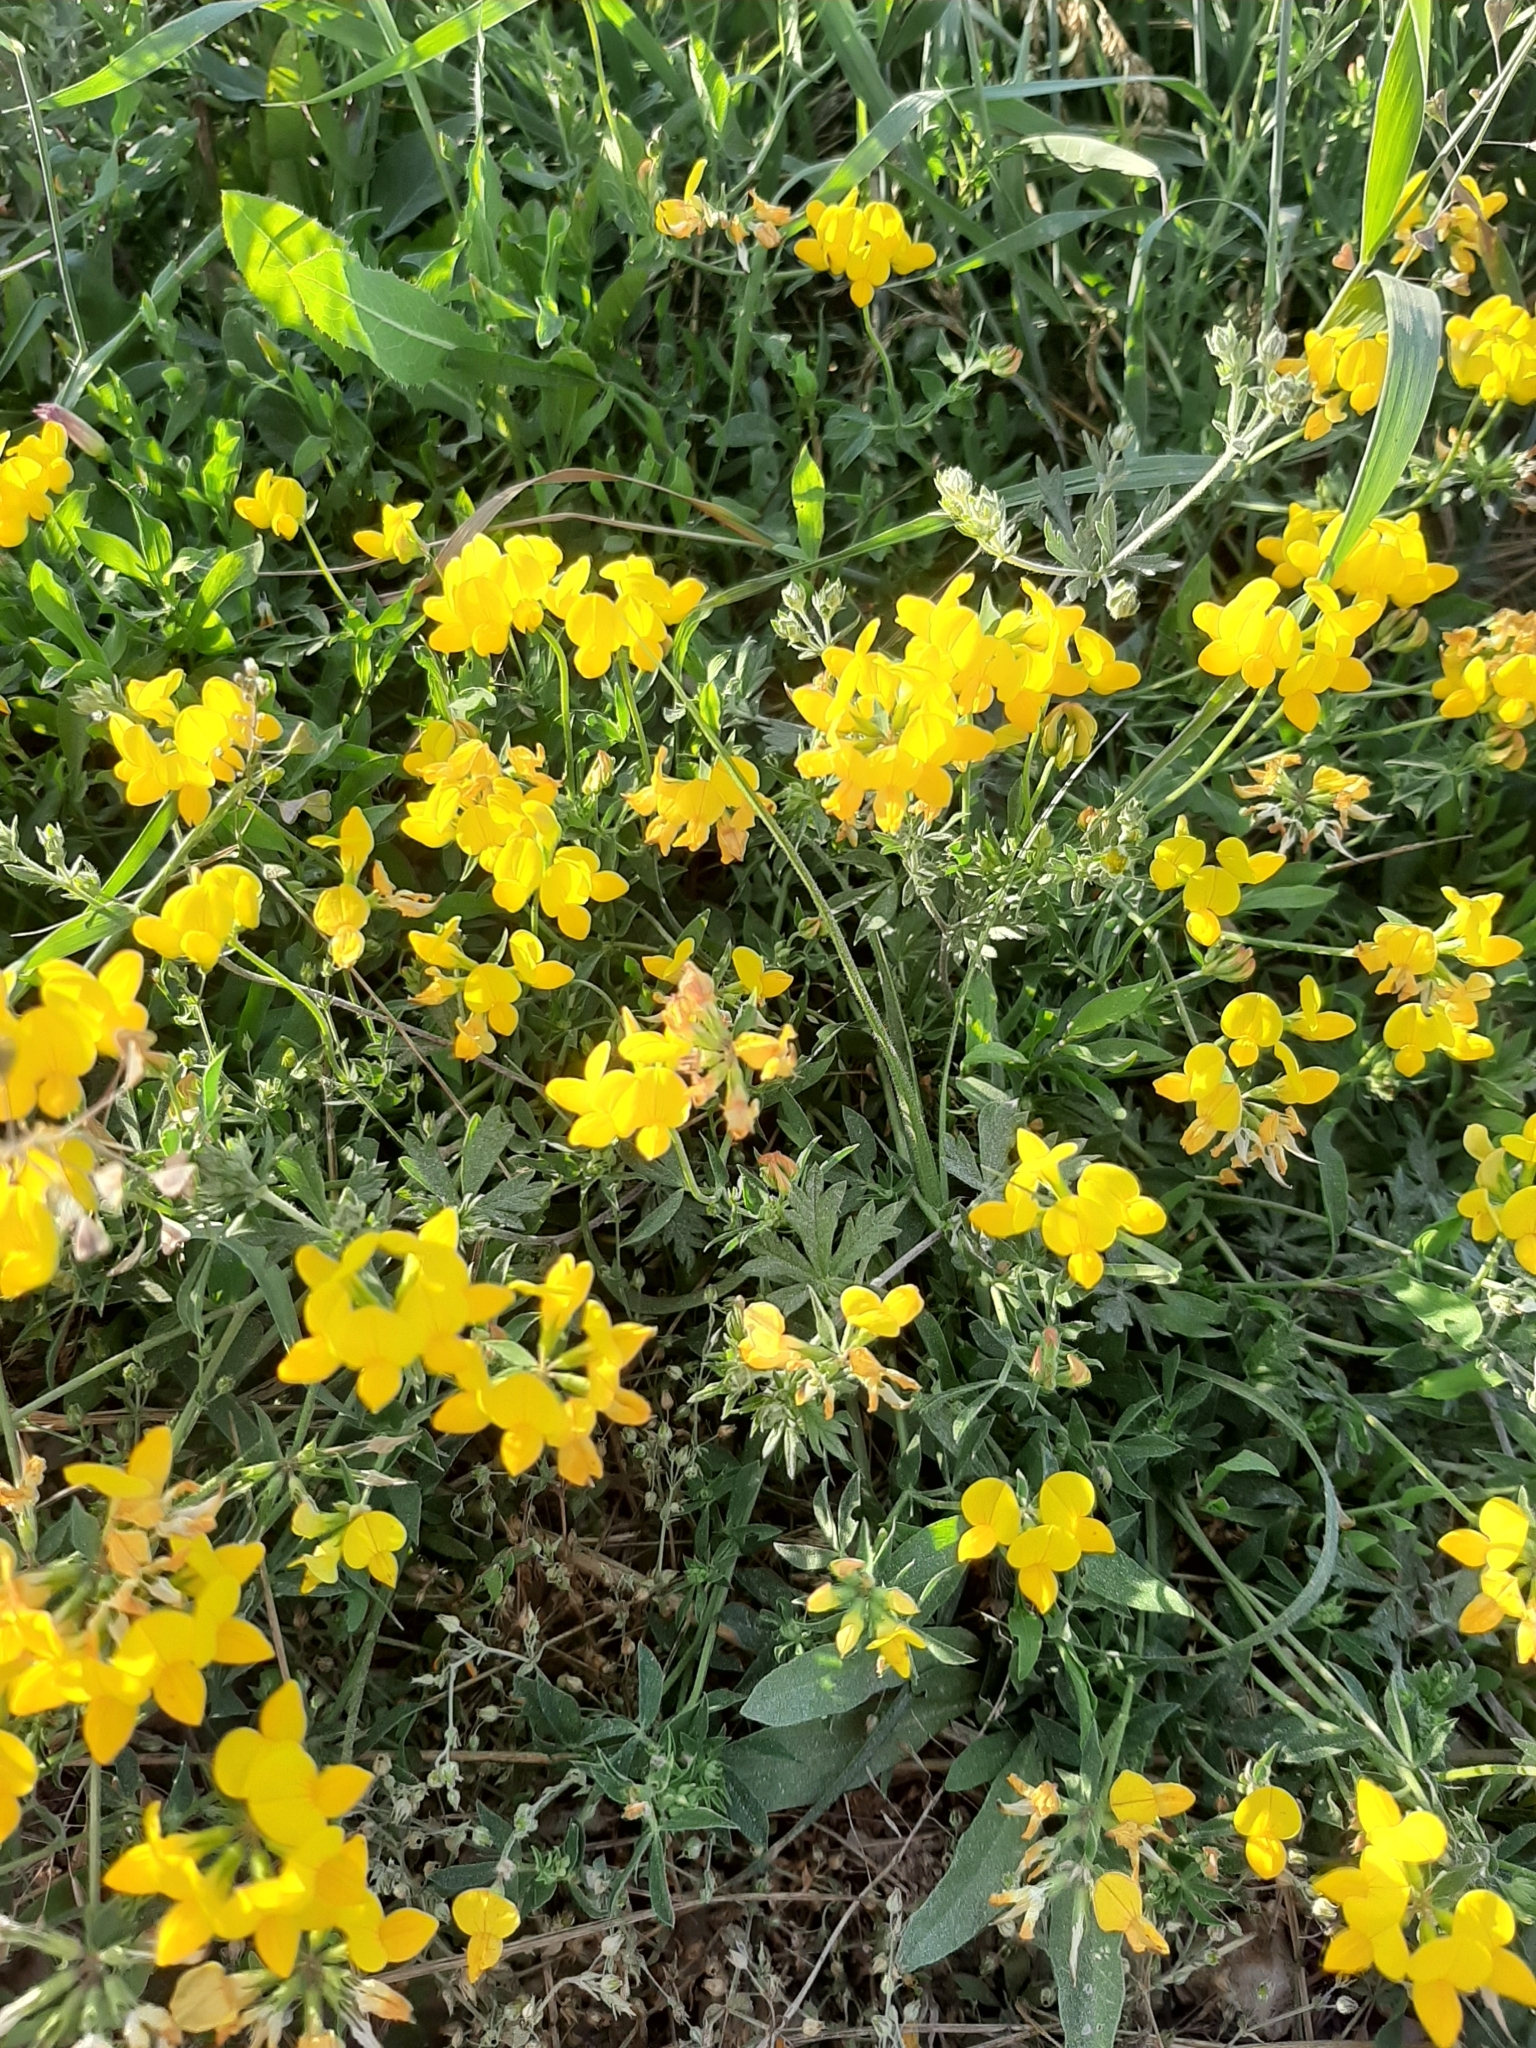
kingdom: Plantae
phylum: Tracheophyta
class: Magnoliopsida
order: Fabales
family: Fabaceae
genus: Lotus
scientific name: Lotus corniculatus
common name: Common bird's-foot-trefoil
